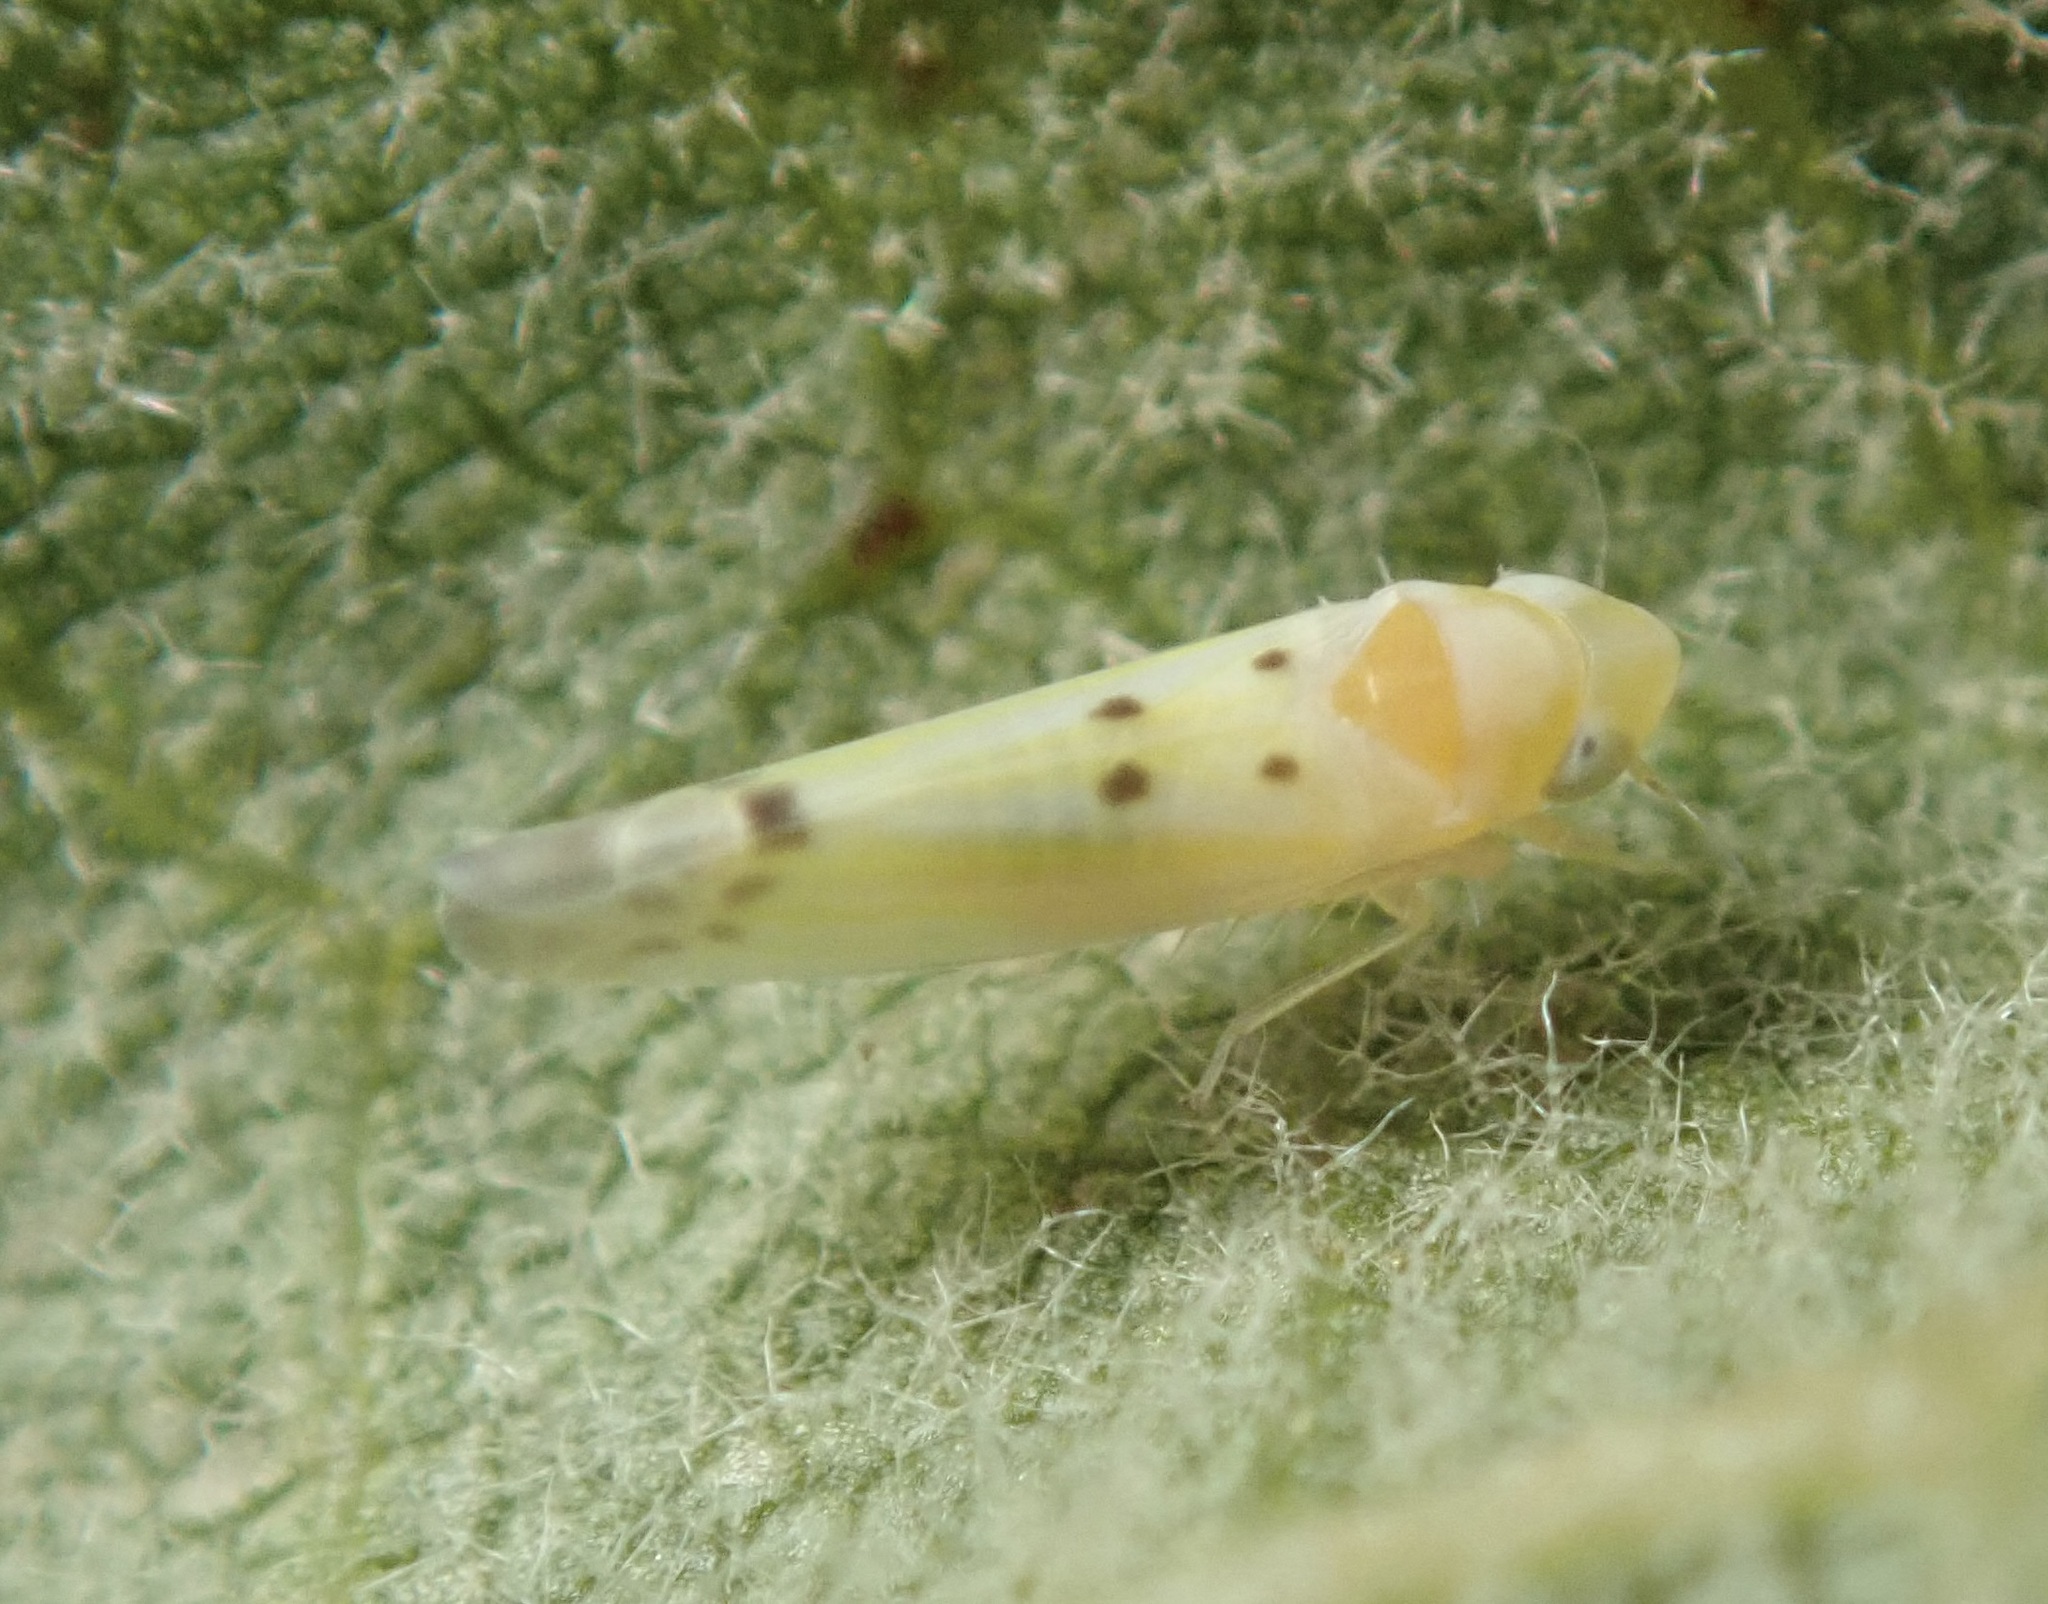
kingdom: Animalia
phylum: Arthropoda
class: Insecta
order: Hemiptera
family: Cicadellidae
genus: Mcateeana
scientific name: Mcateeana sexnotata
